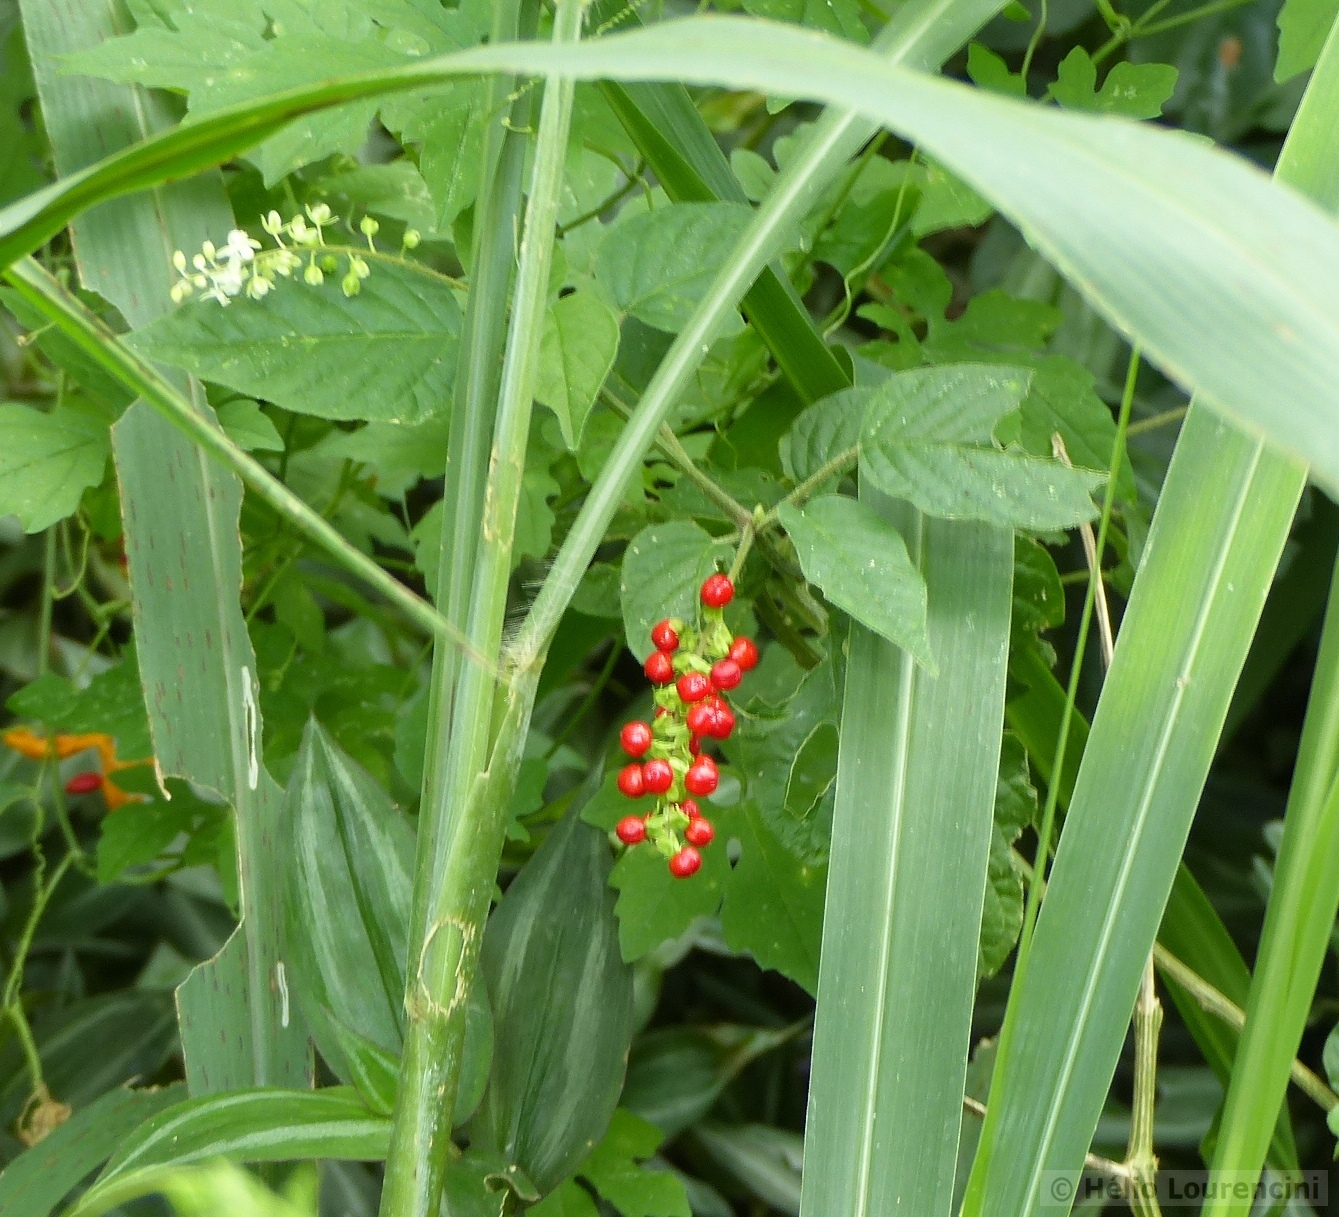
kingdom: Plantae
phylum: Tracheophyta
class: Magnoliopsida
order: Caryophyllales
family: Phytolaccaceae
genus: Rivina
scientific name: Rivina humilis
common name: Rougeplant
